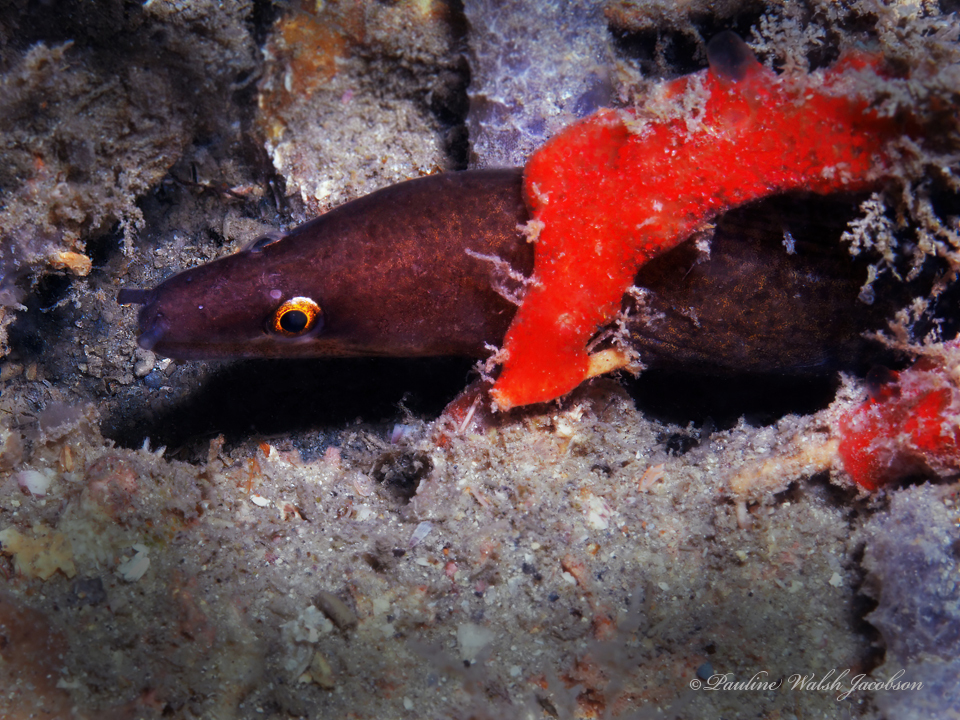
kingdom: Animalia
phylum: Chordata
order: Anguilliformes
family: Muraenidae
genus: Gymnothorax
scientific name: Gymnothorax vicinus
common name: Purplemouth moray
